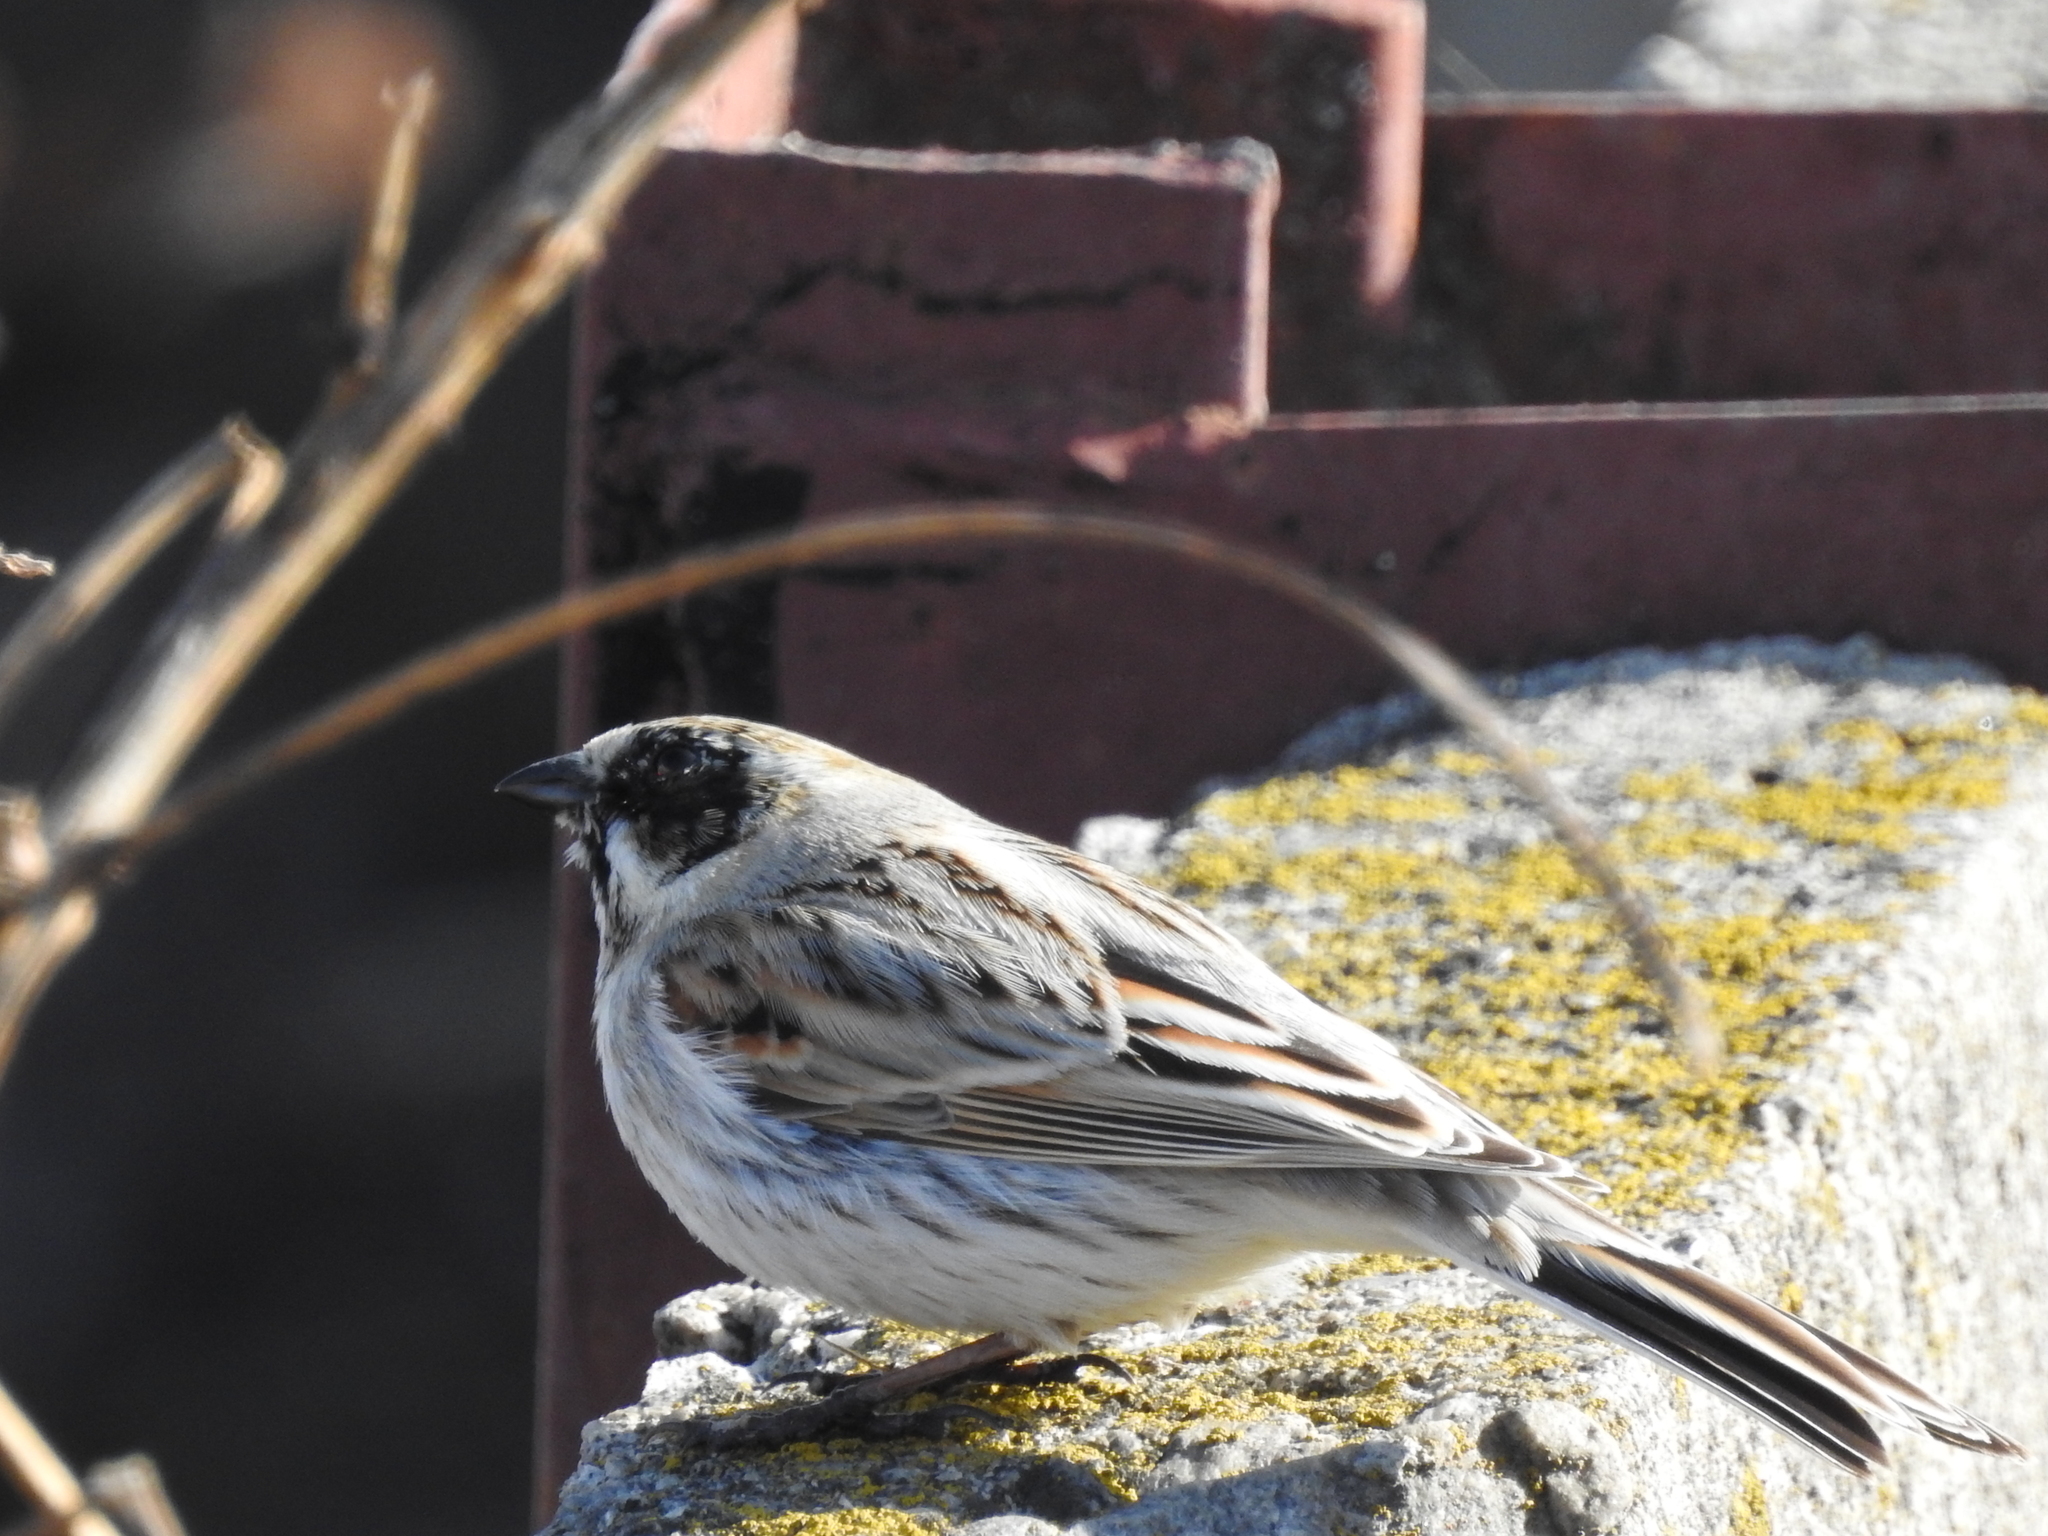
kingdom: Animalia
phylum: Chordata
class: Aves
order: Passeriformes
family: Emberizidae
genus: Emberiza
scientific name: Emberiza schoeniclus
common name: Reed bunting
